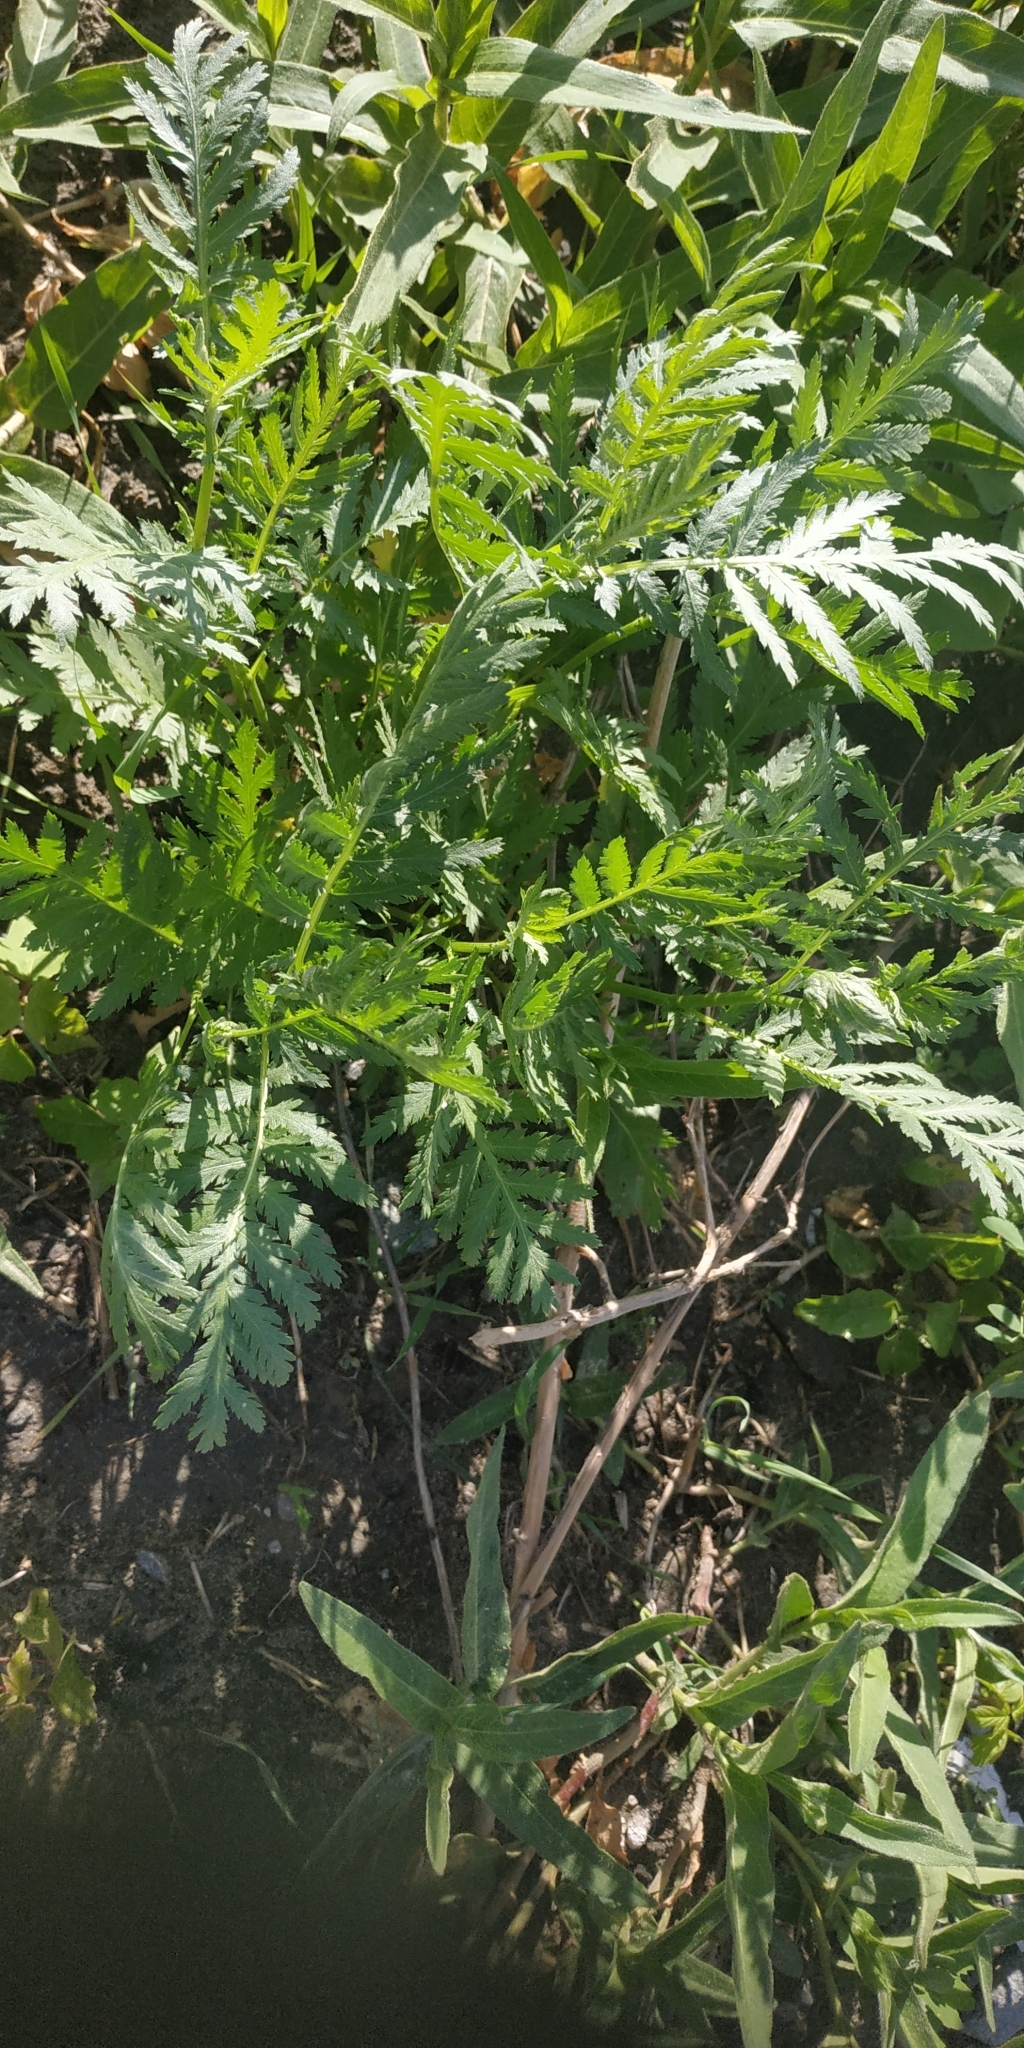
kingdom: Plantae
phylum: Tracheophyta
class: Magnoliopsida
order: Asterales
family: Asteraceae
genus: Tanacetum
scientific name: Tanacetum vulgare
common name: Common tansy
